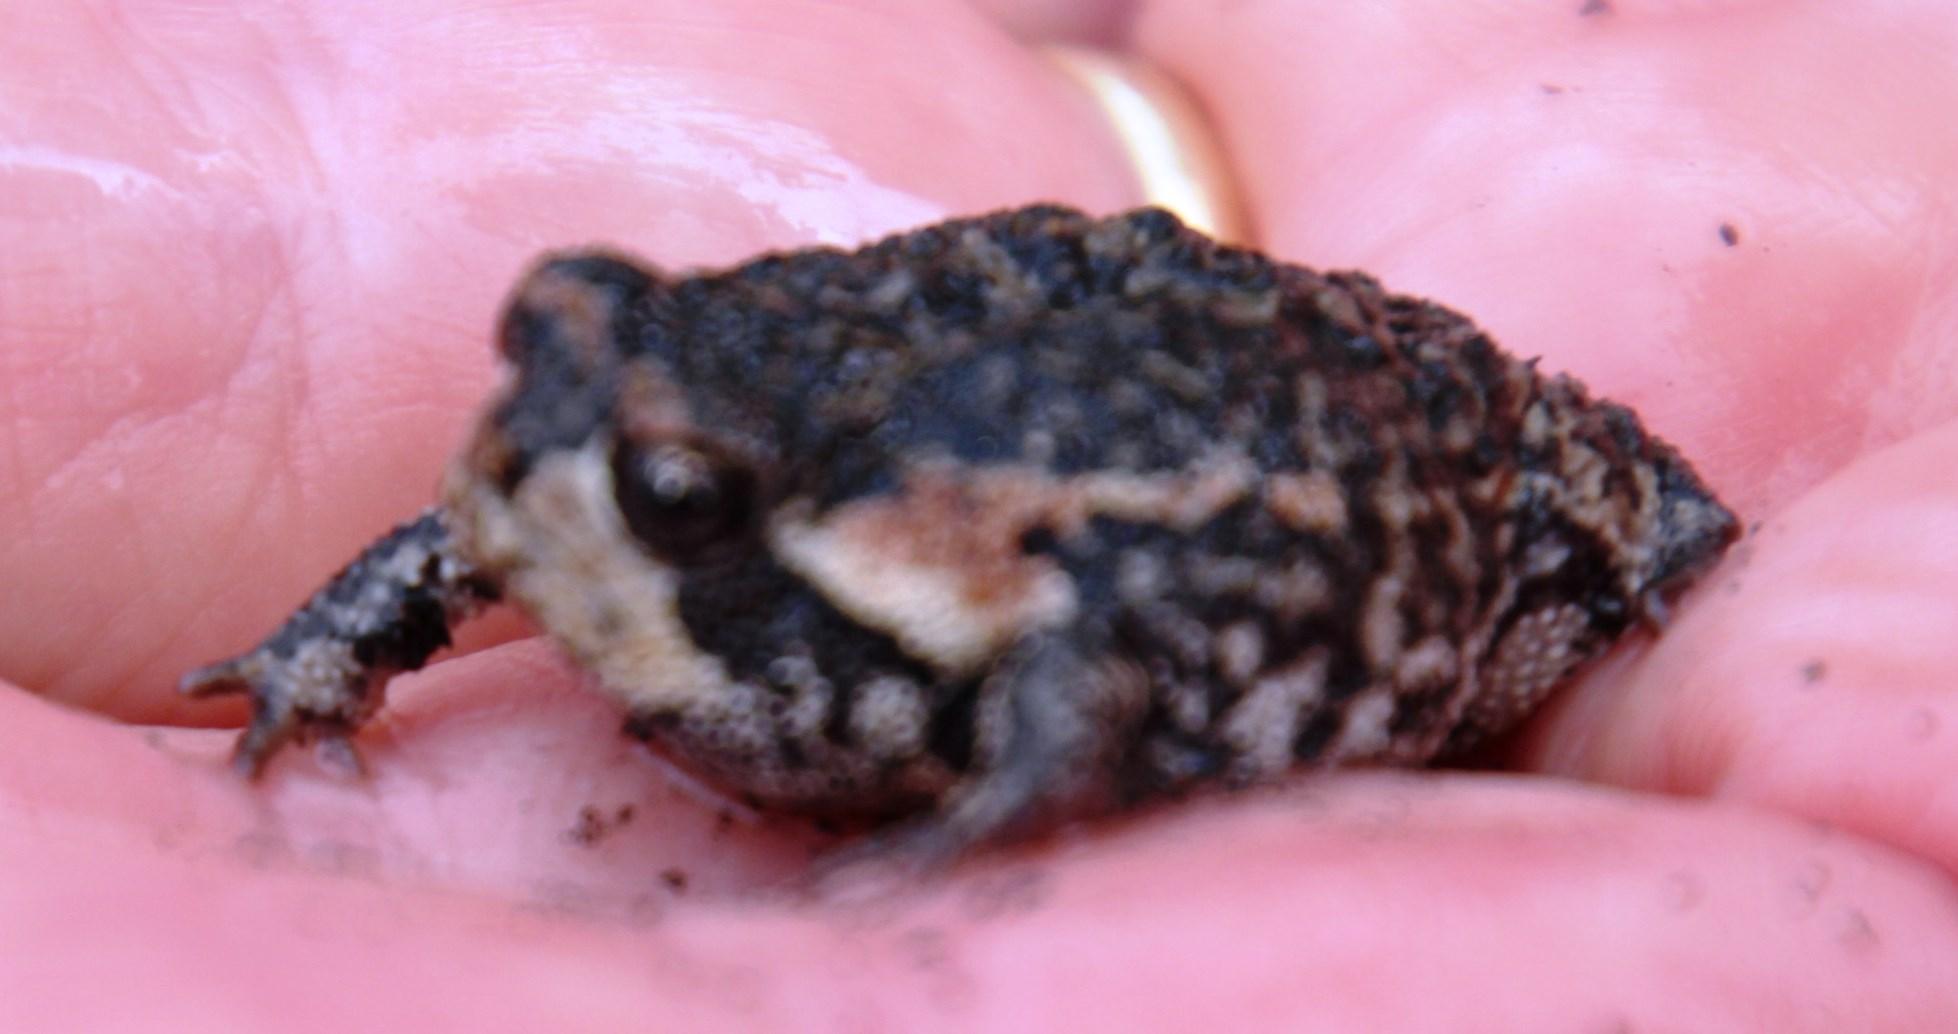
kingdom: Animalia
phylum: Chordata
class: Amphibia
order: Anura
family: Brevicipitidae
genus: Breviceps
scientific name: Breviceps montanus
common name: Mountain rain frog
